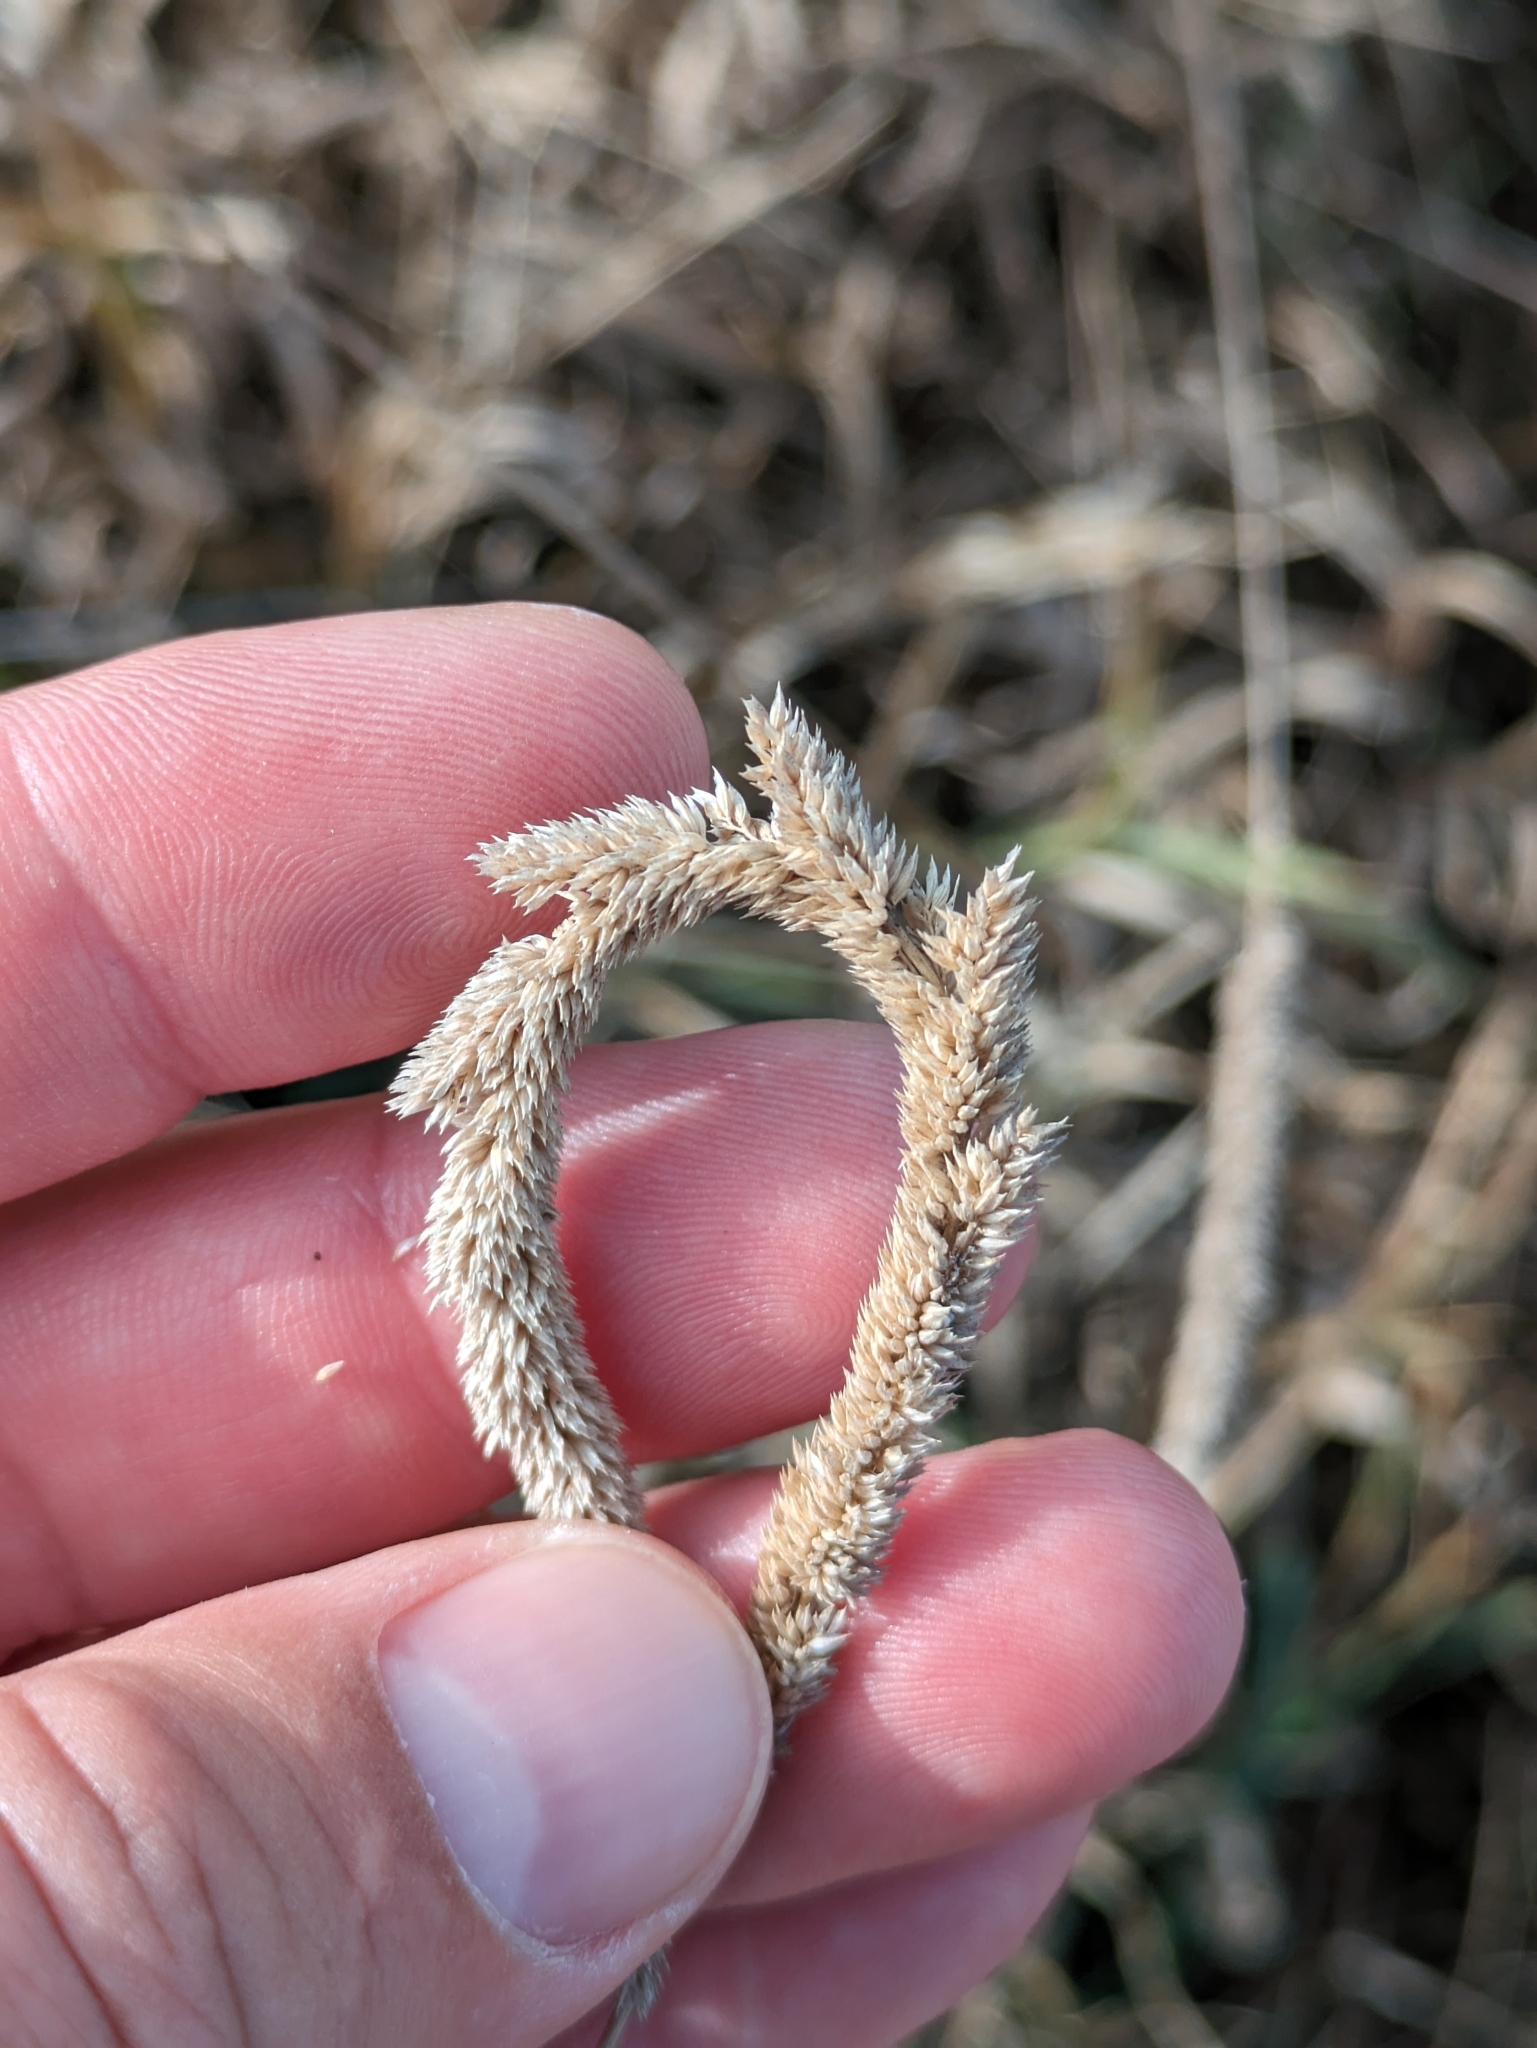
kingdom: Plantae
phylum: Tracheophyta
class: Liliopsida
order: Poales
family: Poaceae
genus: Phleum
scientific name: Phleum phleoides
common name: Purple-stem cat's-tail
